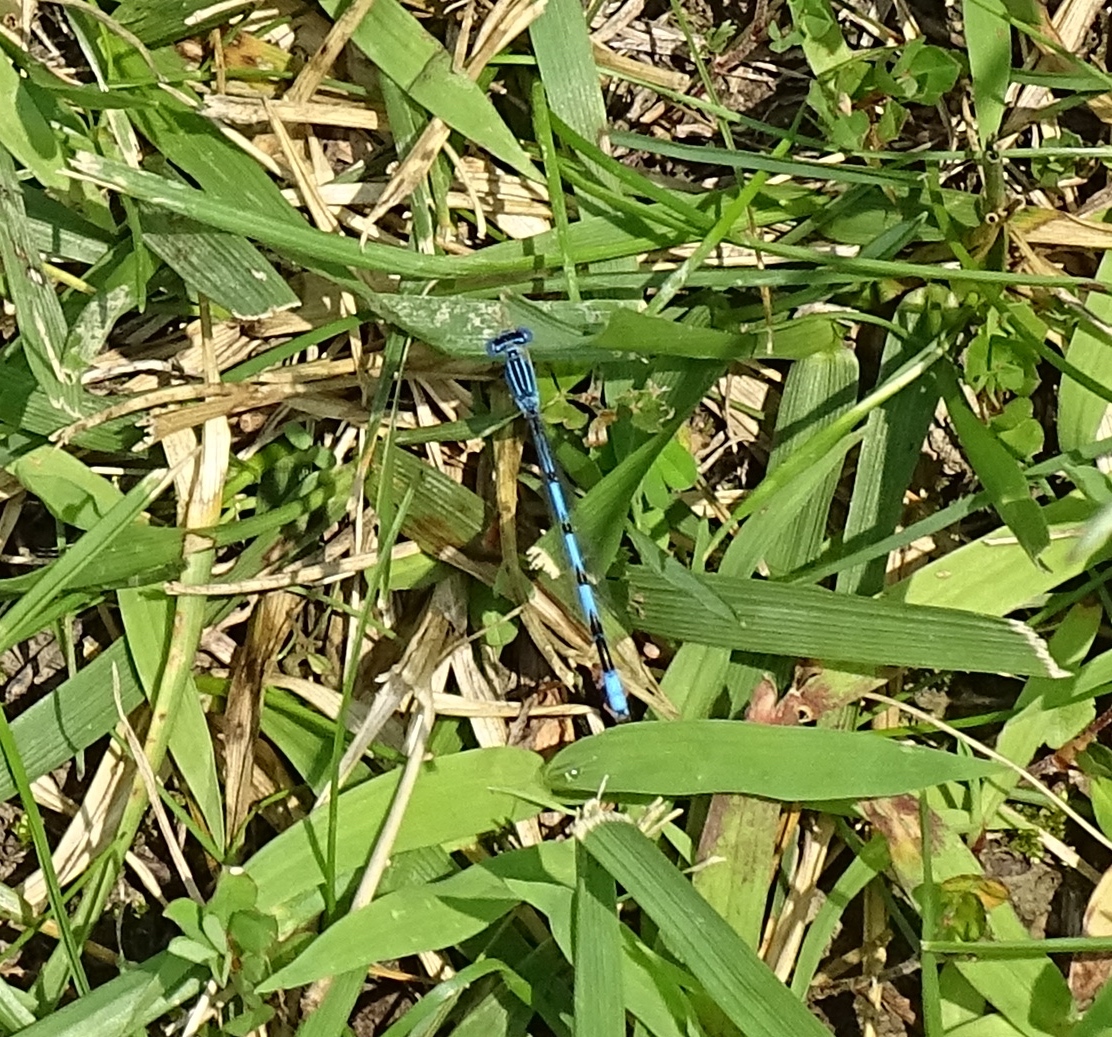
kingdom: Animalia
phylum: Arthropoda
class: Insecta
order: Odonata
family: Coenagrionidae
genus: Enallagma
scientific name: Enallagma basidens
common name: Double-striped bluet
